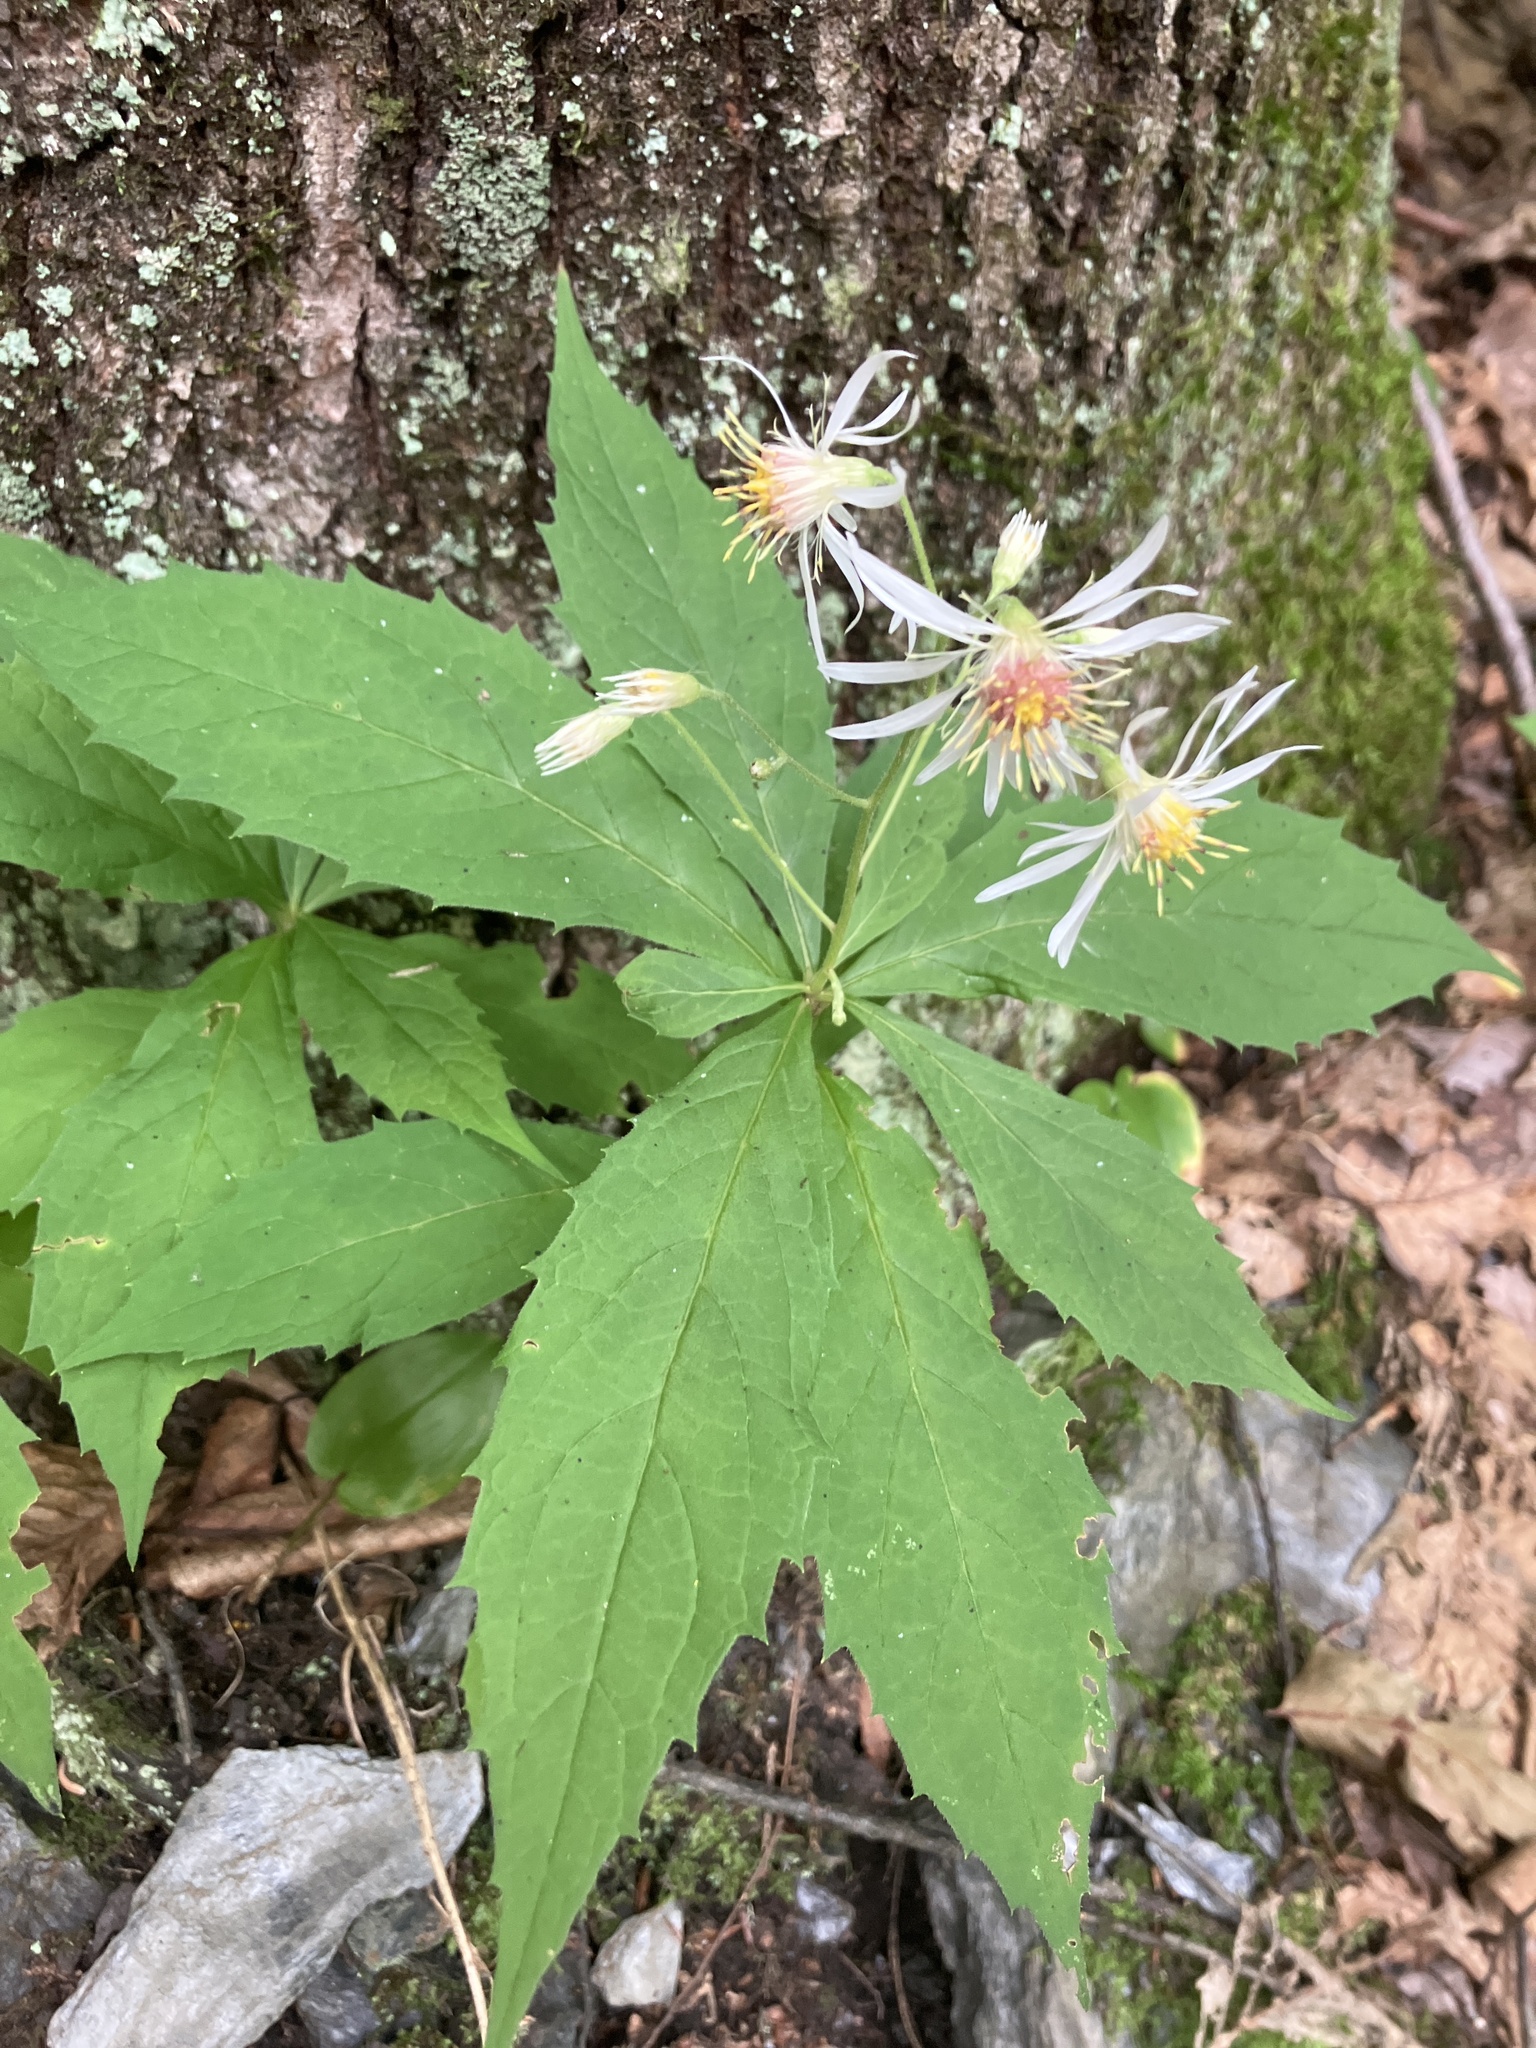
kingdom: Plantae
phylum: Tracheophyta
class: Magnoliopsida
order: Asterales
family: Asteraceae
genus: Oclemena
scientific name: Oclemena acuminata
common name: Mountain aster
